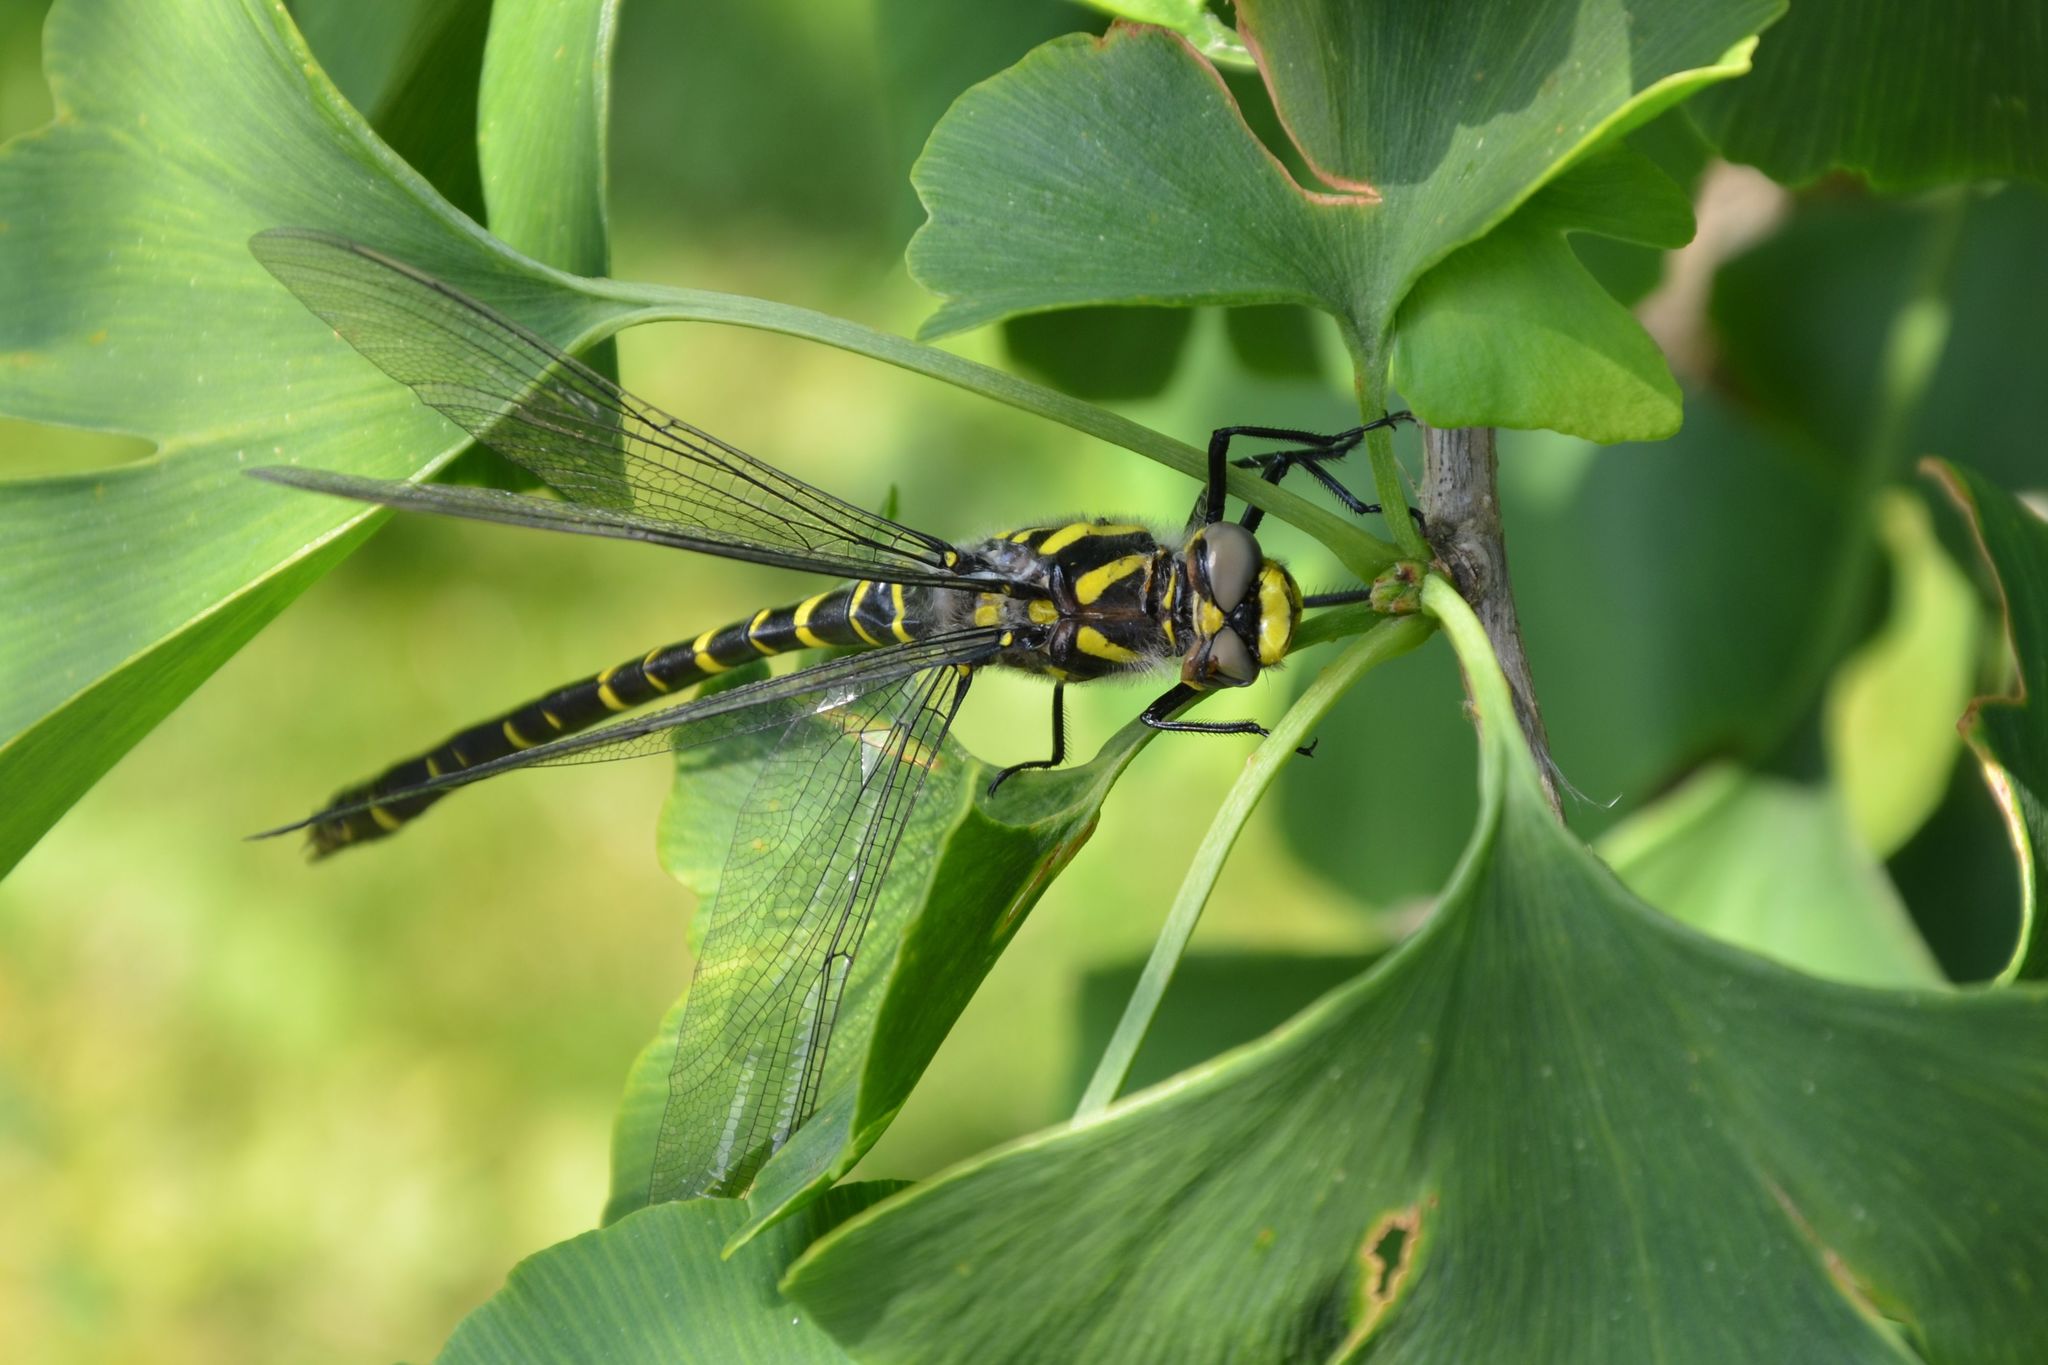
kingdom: Animalia
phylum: Arthropoda
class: Insecta
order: Odonata
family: Cordulegastridae
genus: Cordulegaster
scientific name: Cordulegaster boltonii
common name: Golden-ringed dragonfly
